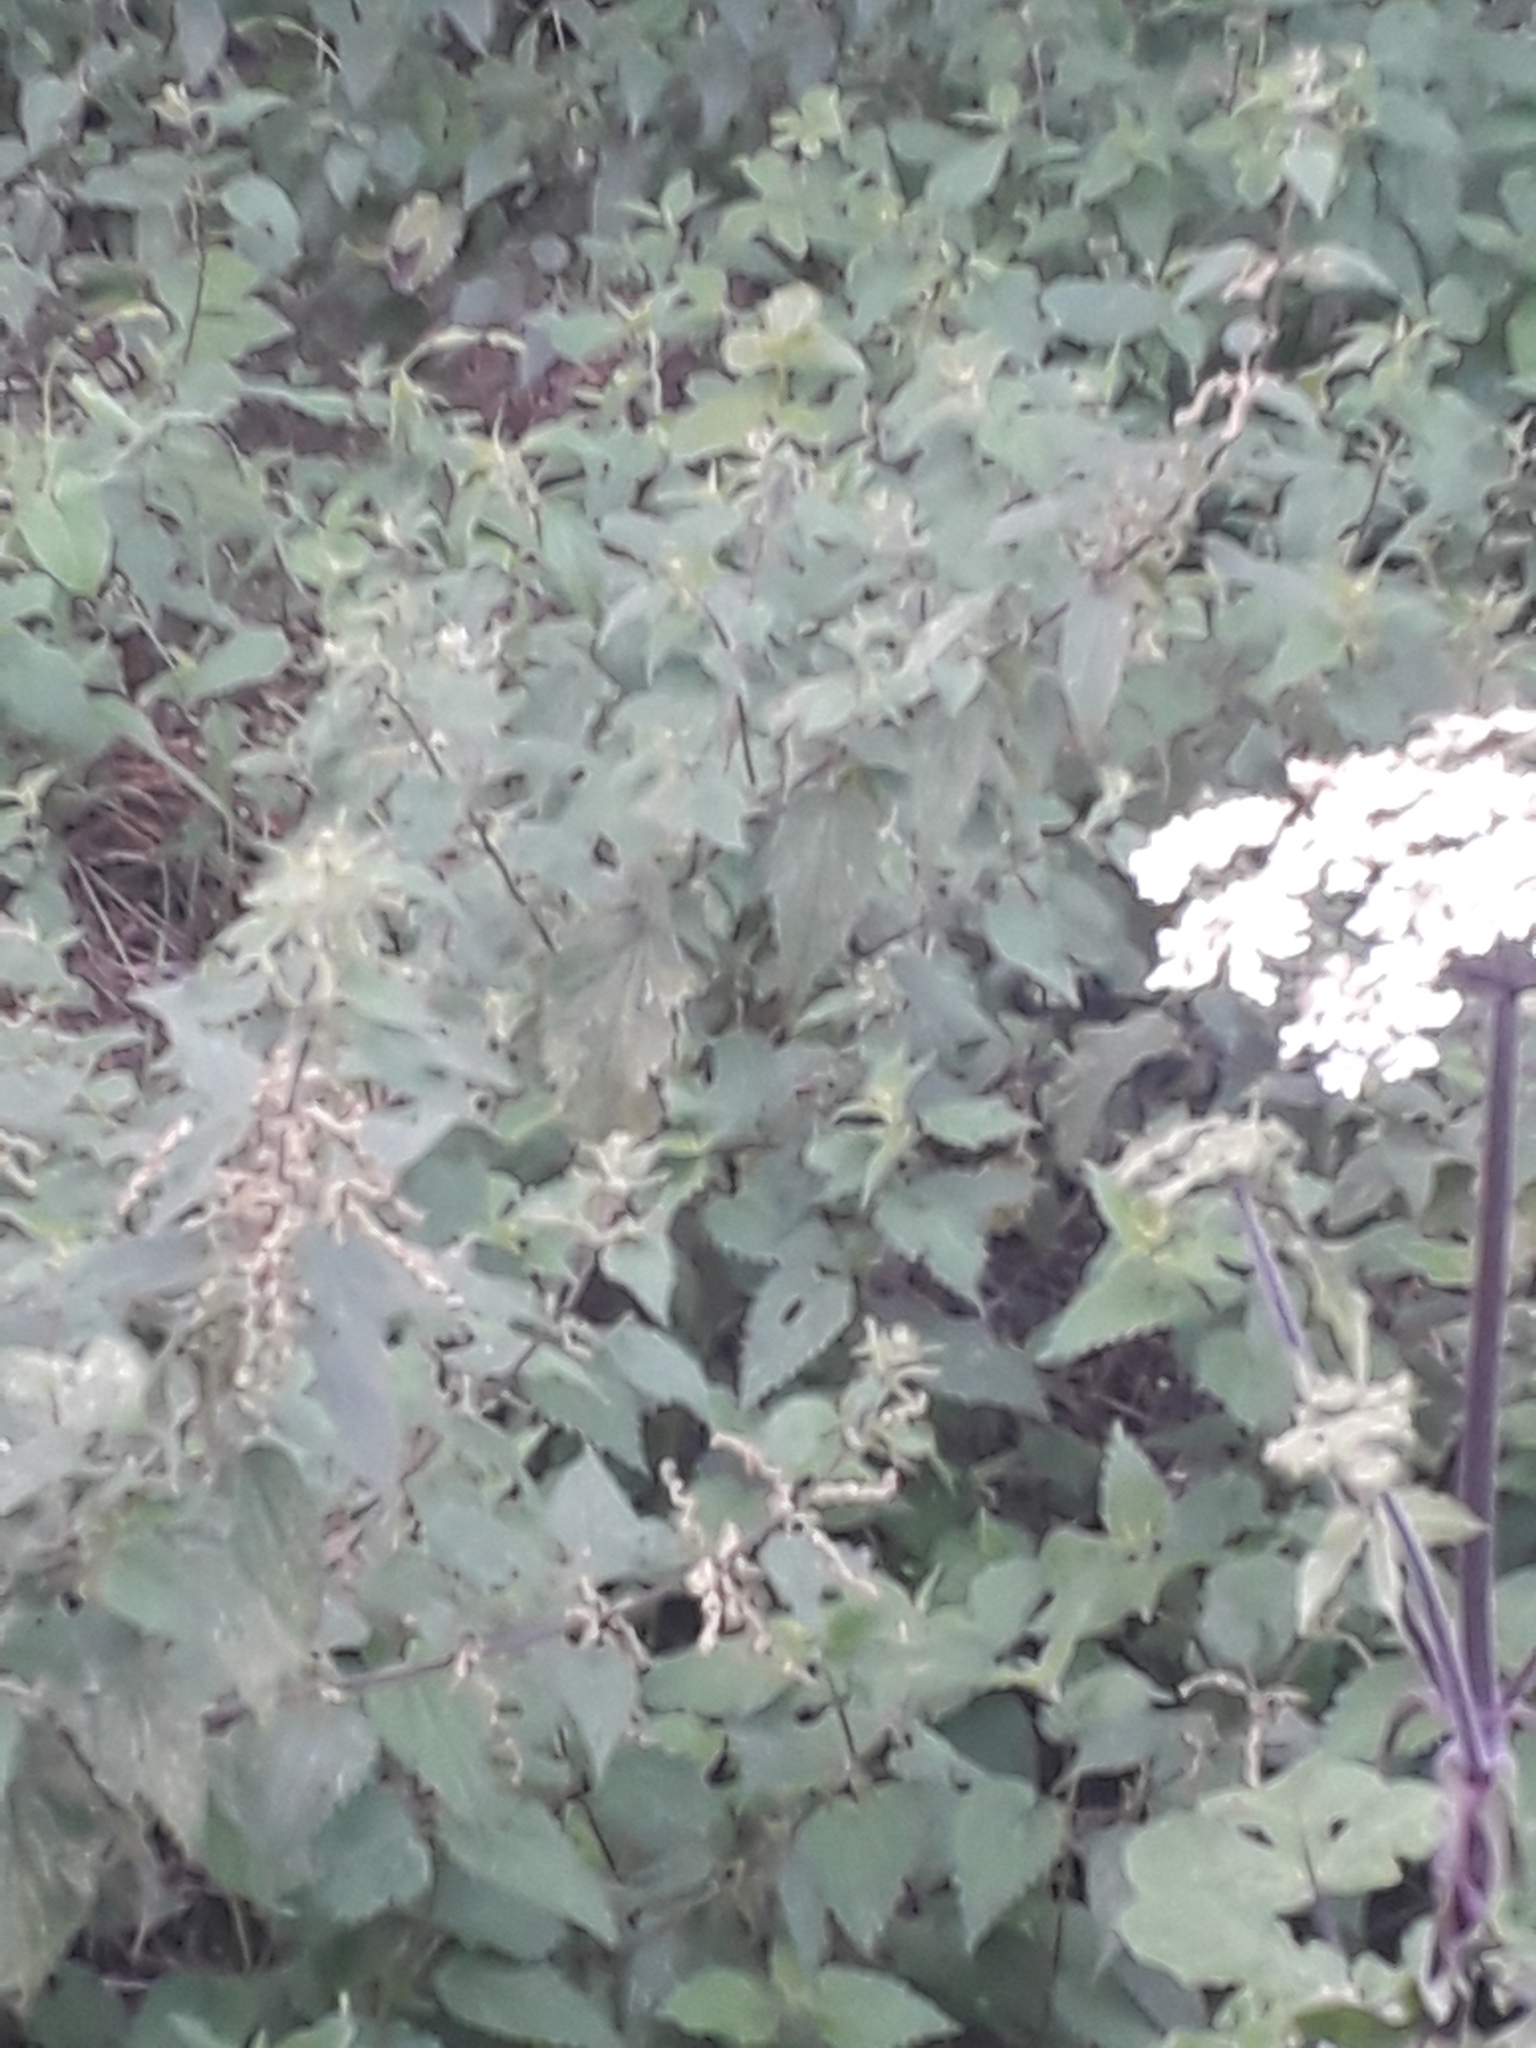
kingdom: Plantae
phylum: Tracheophyta
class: Magnoliopsida
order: Rosales
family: Urticaceae
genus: Urtica
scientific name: Urtica dioica
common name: Common nettle
